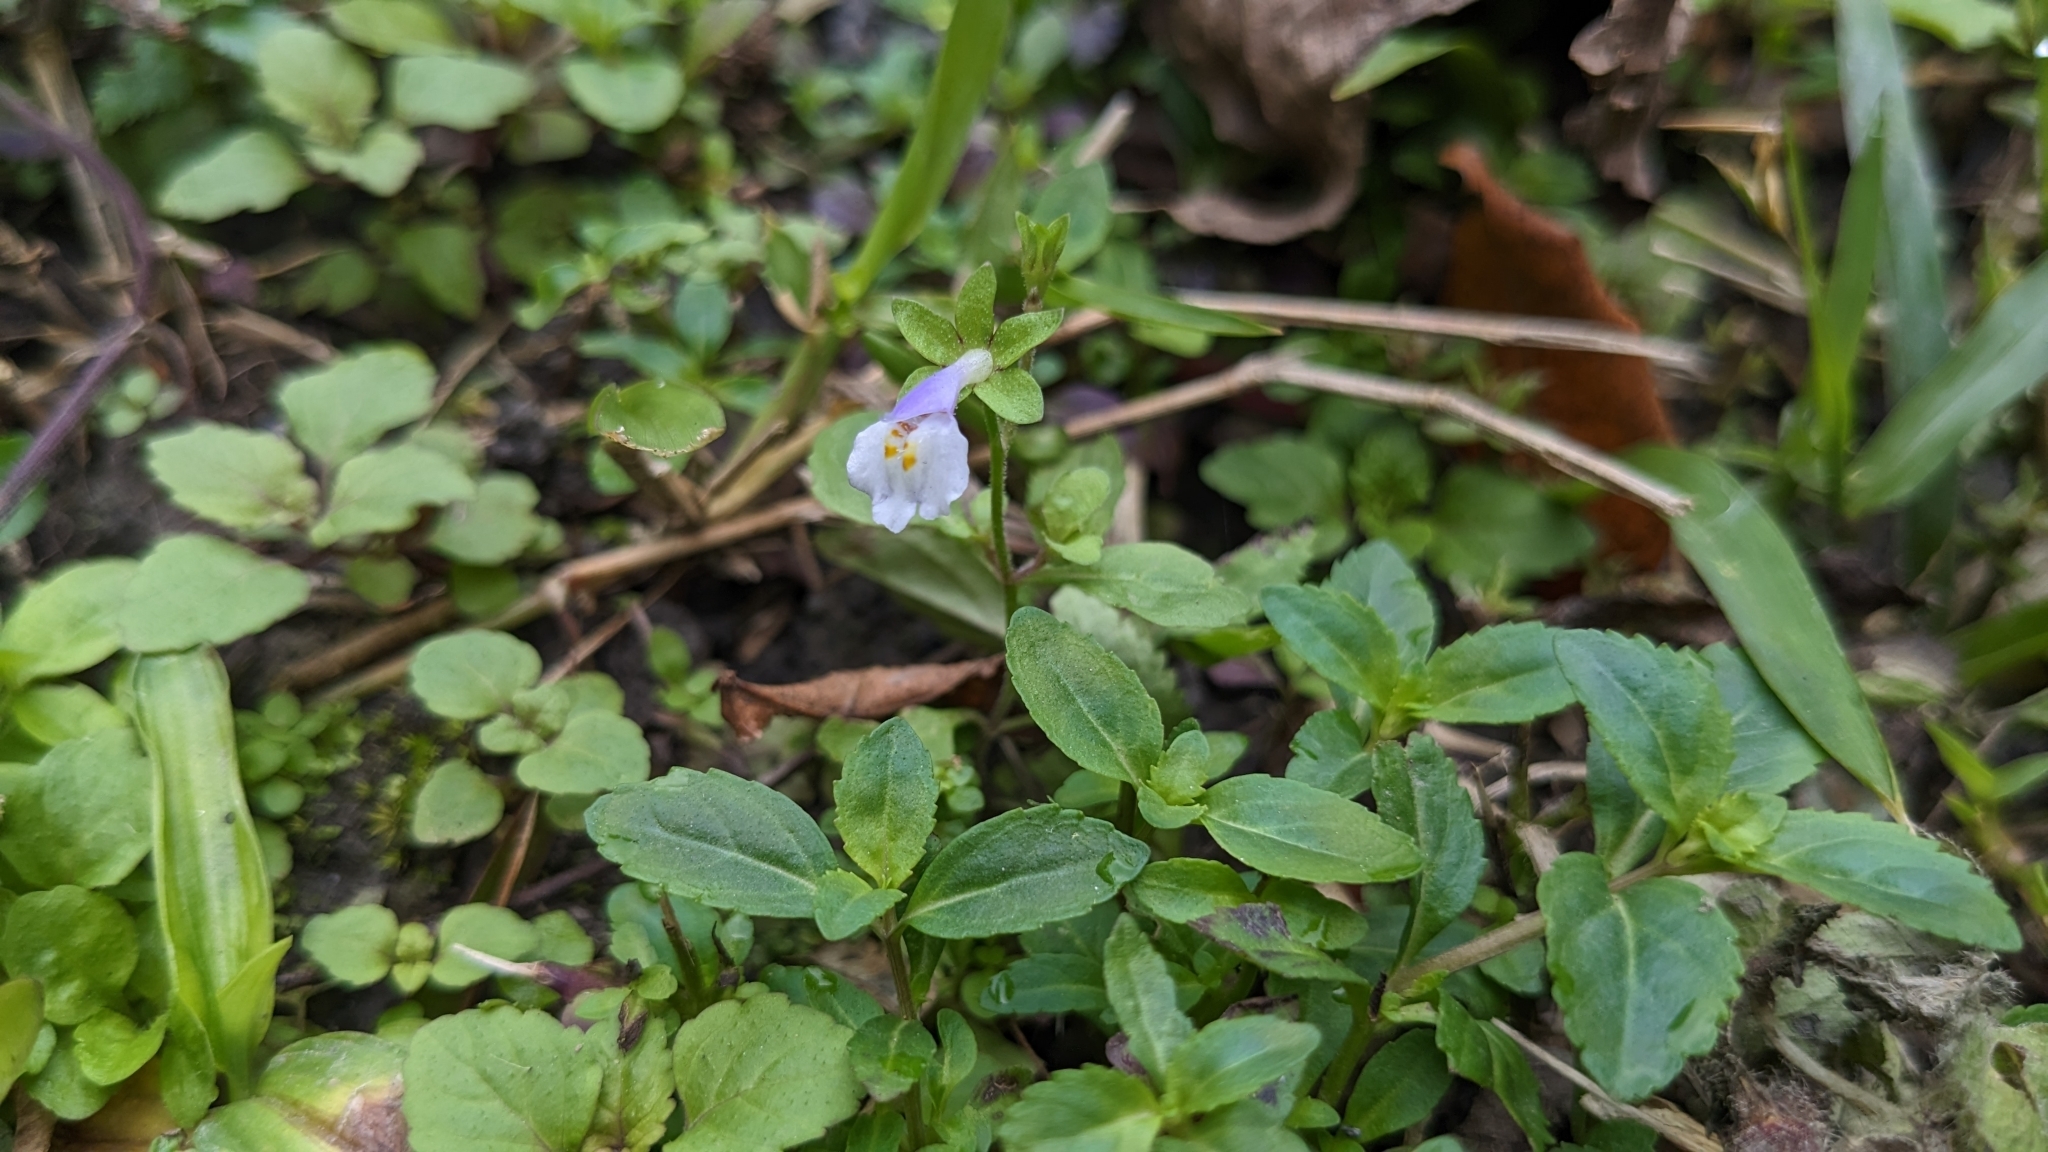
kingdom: Plantae
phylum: Tracheophyta
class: Magnoliopsida
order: Lamiales
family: Mazaceae
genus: Mazus
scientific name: Mazus pumilus
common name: Japanese mazus
